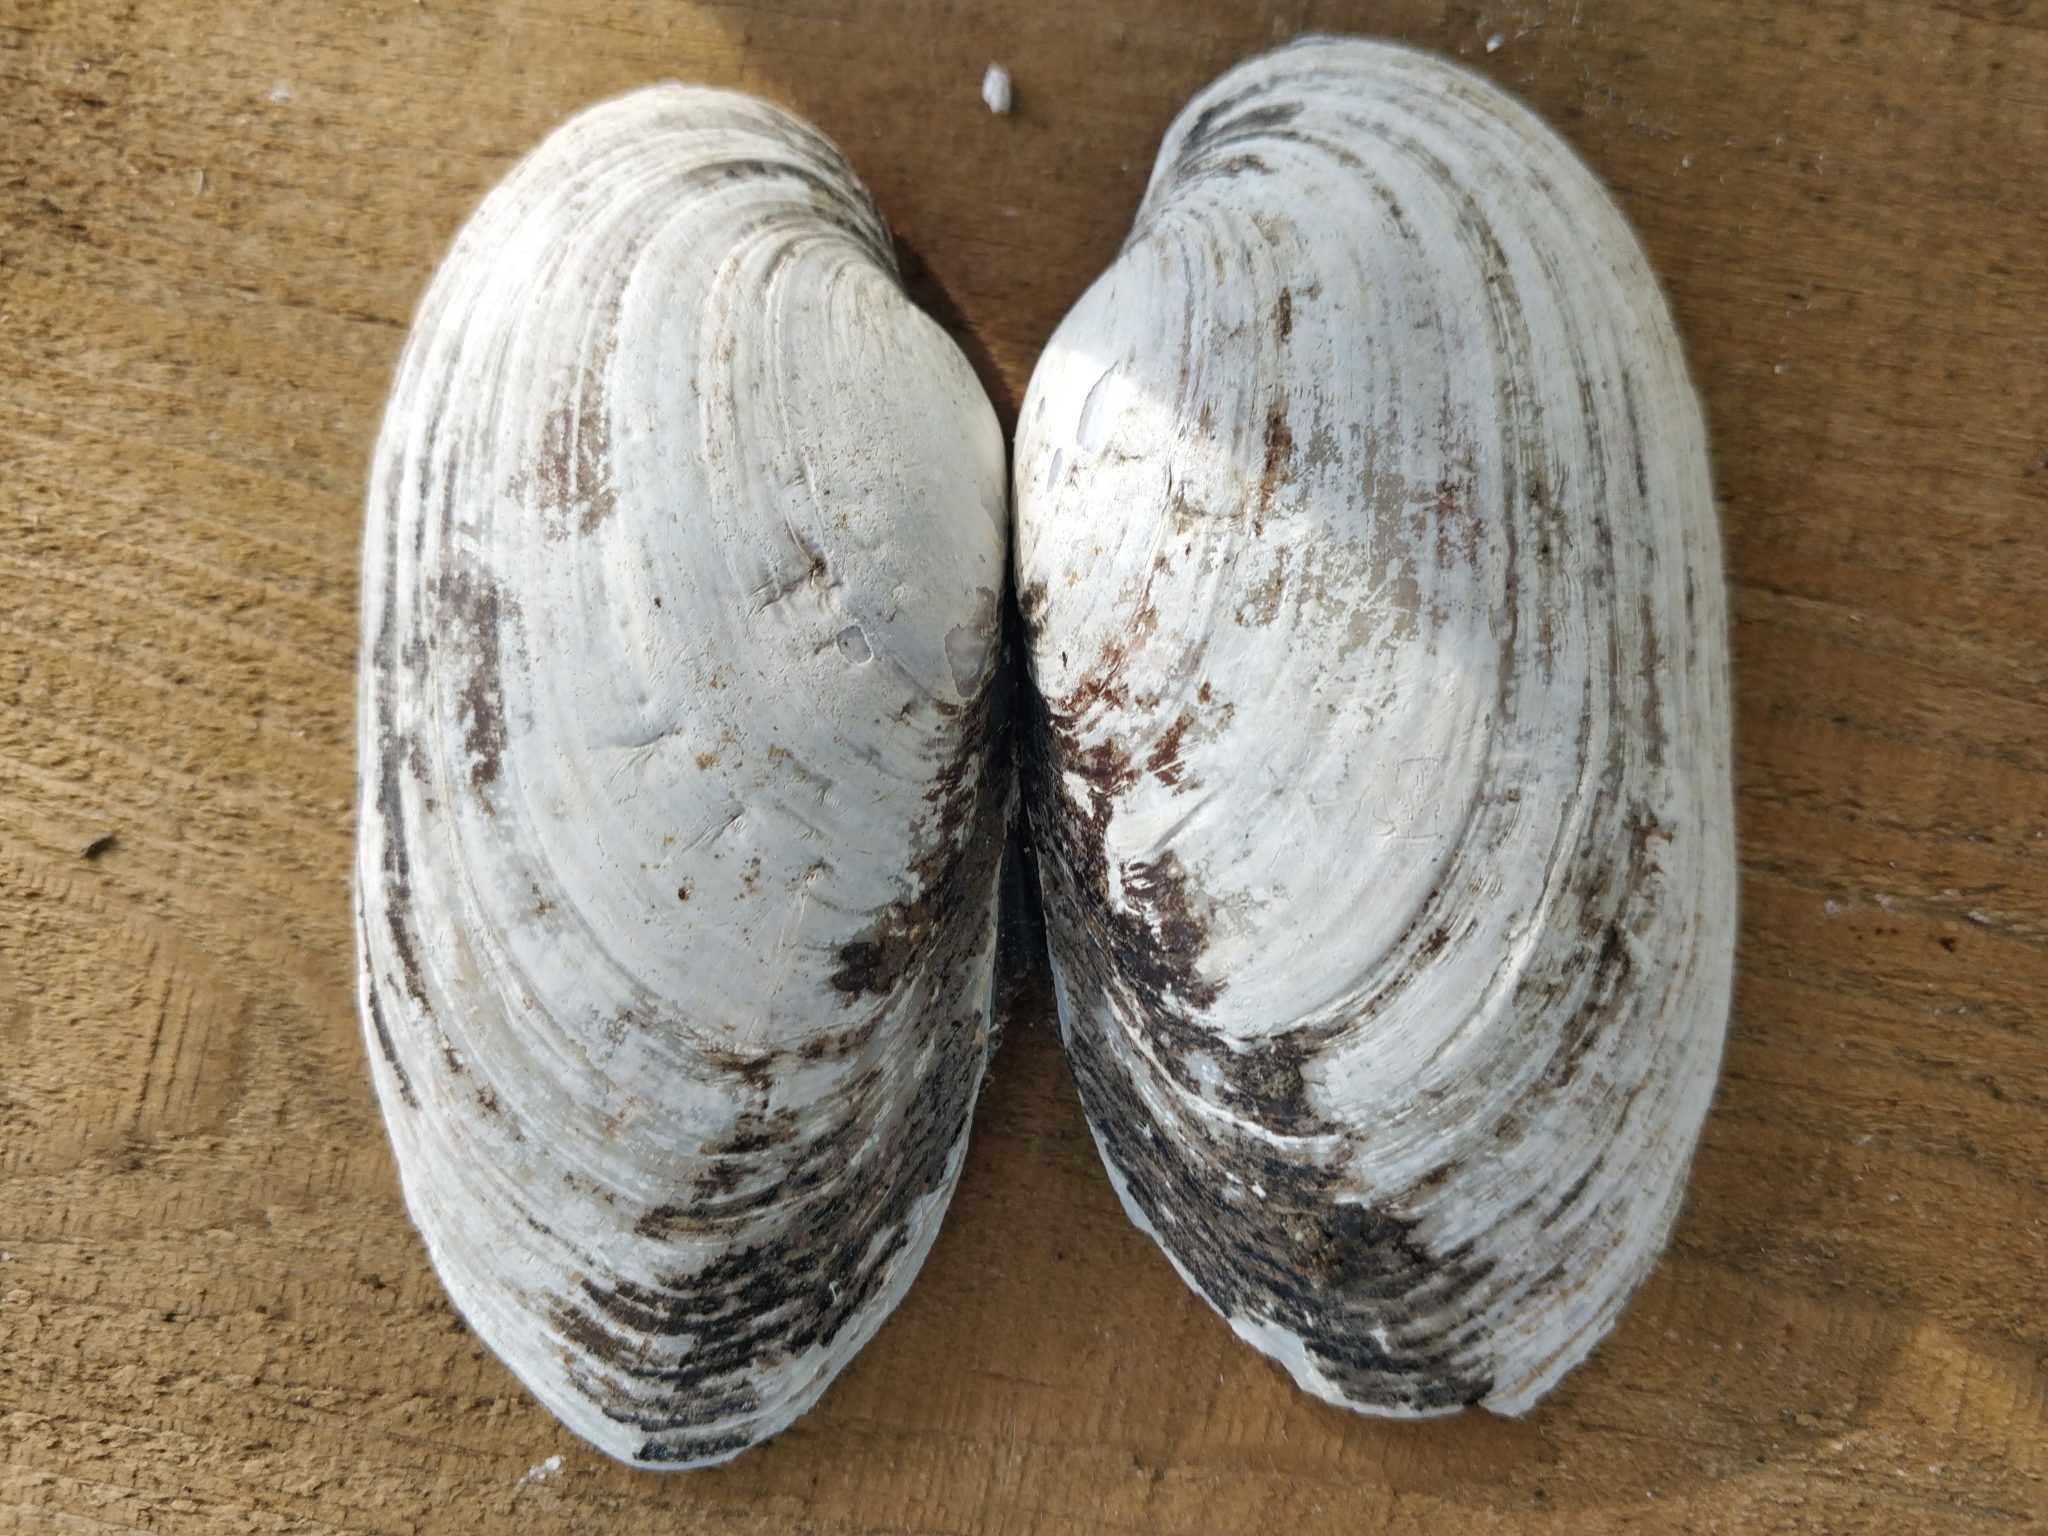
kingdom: Animalia
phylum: Mollusca
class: Bivalvia
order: Unionida
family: Unionidae
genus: Lampsilis
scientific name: Lampsilis siliquoidea
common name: Fatmucket
